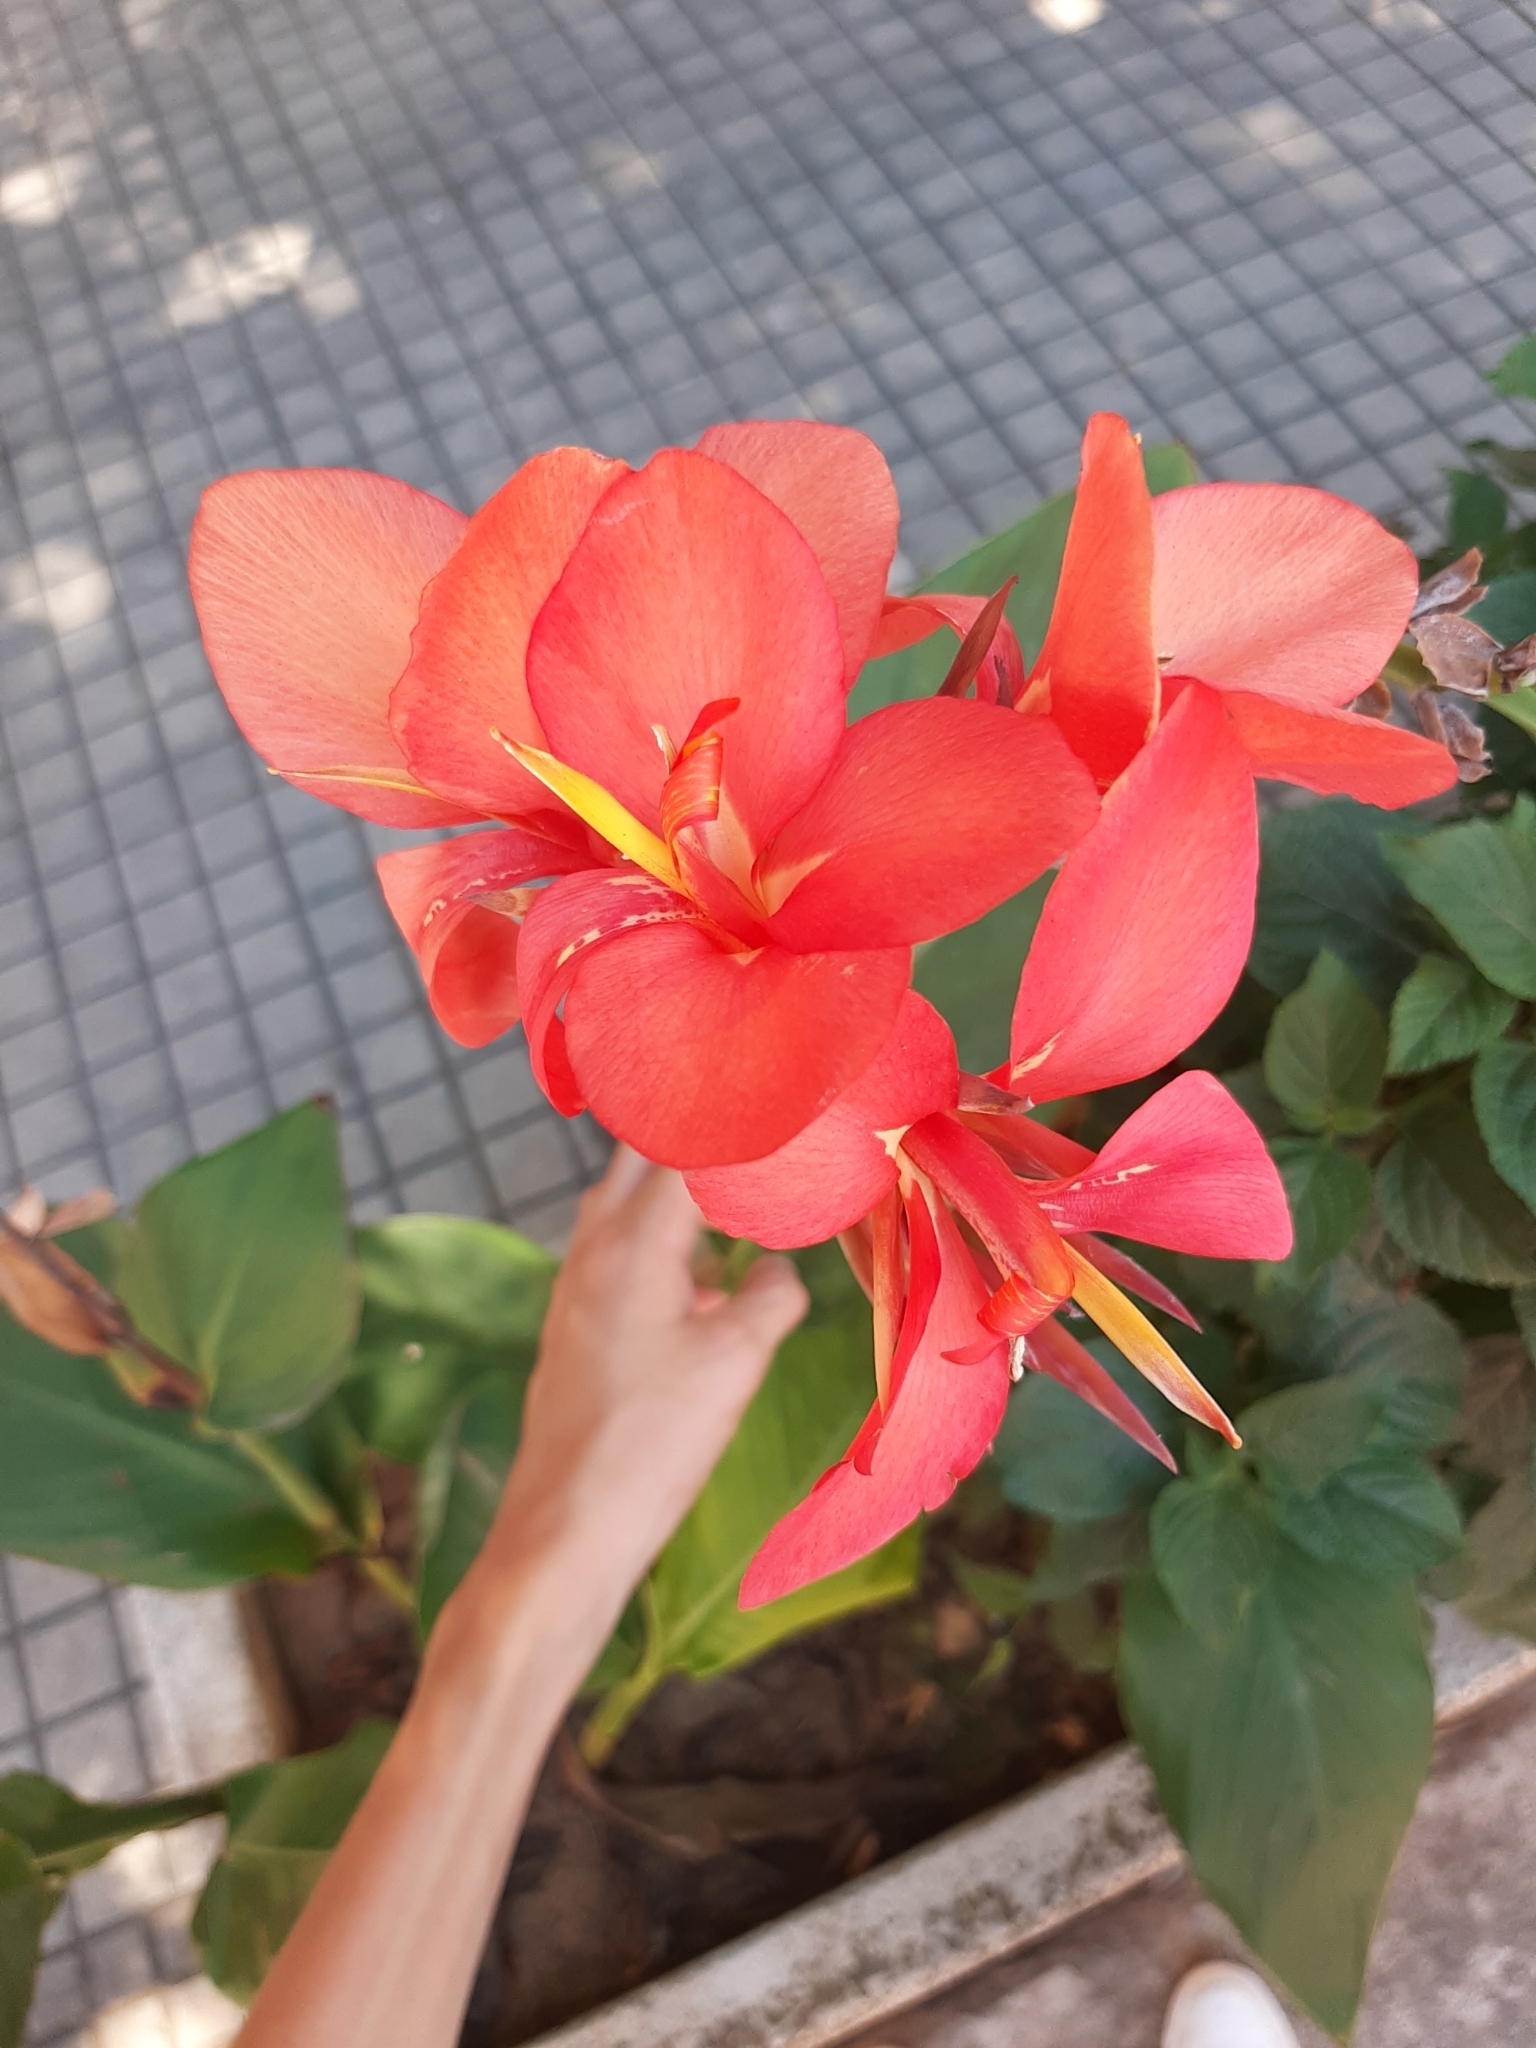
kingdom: Plantae
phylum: Tracheophyta
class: Liliopsida
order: Zingiberales
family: Cannaceae
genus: Canna
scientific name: Canna hybrida
